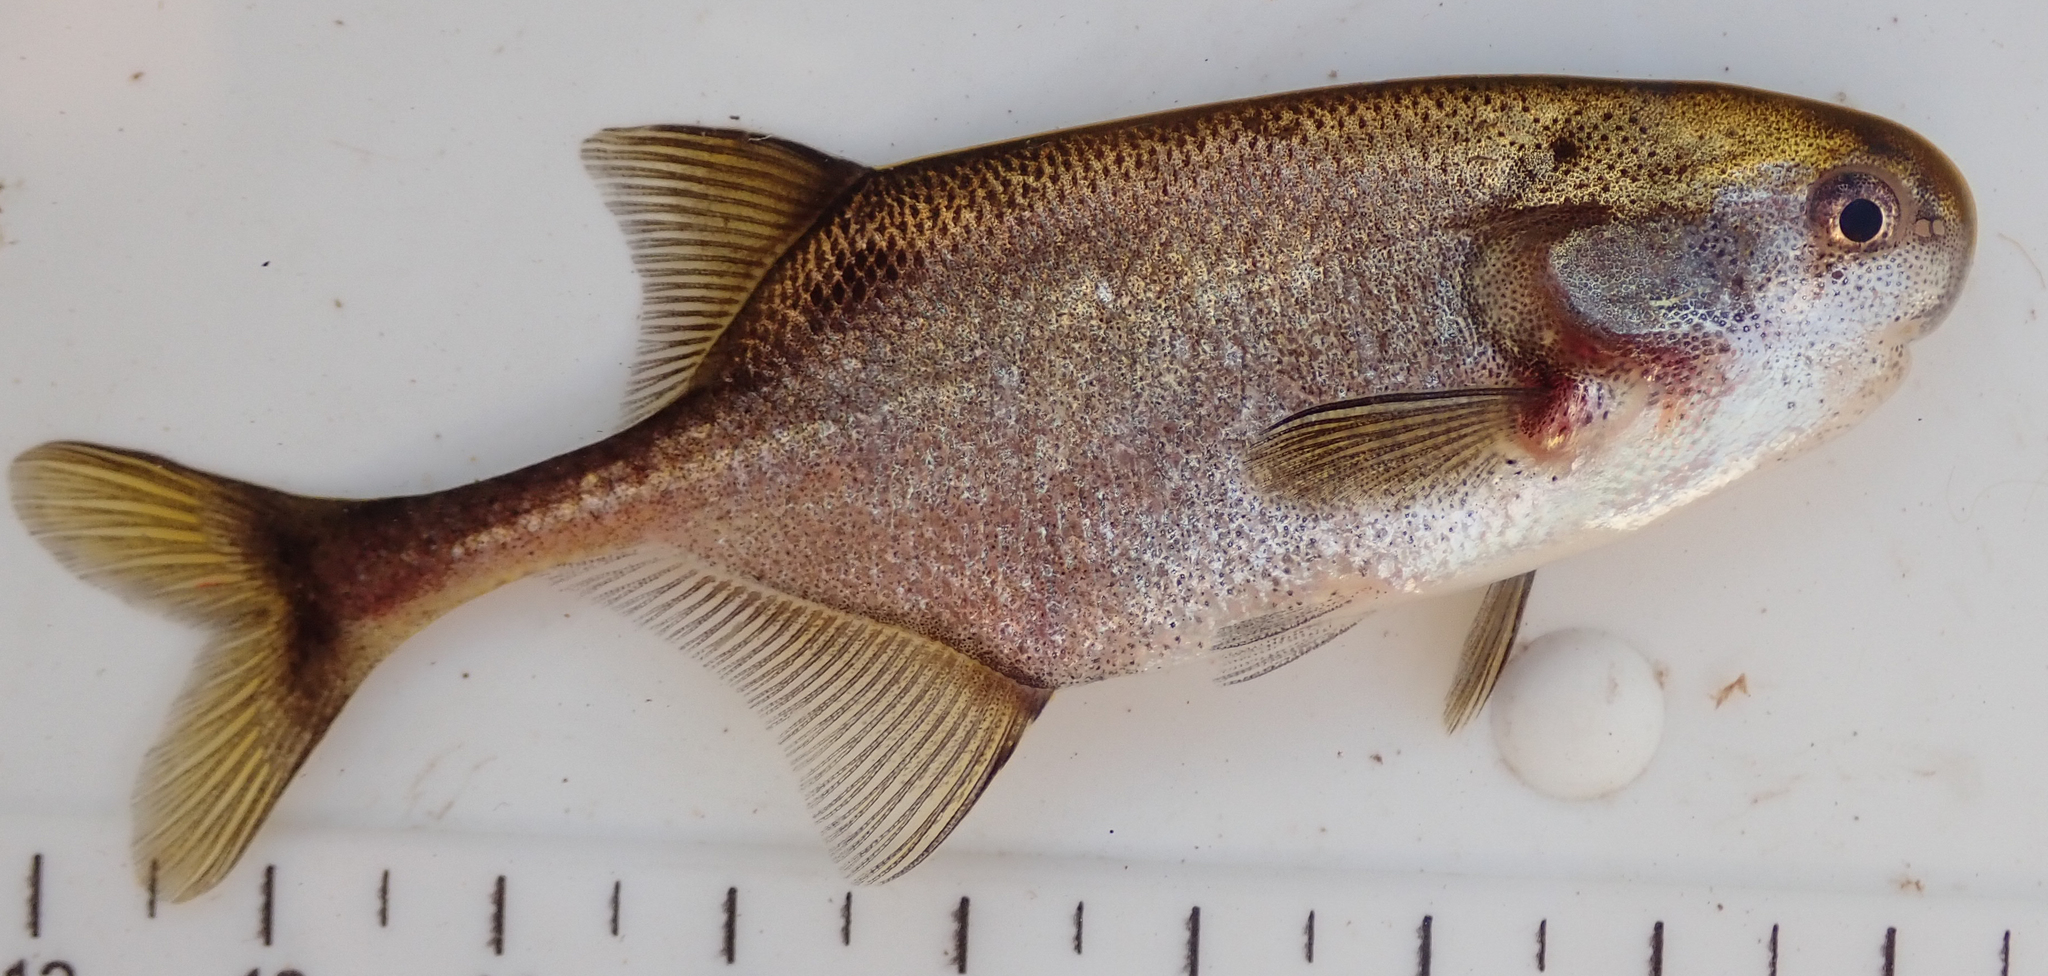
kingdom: Animalia
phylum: Chordata
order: Osteoglossiformes
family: Mormyridae
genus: Petrocephalus
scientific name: Petrocephalus okavangensis
